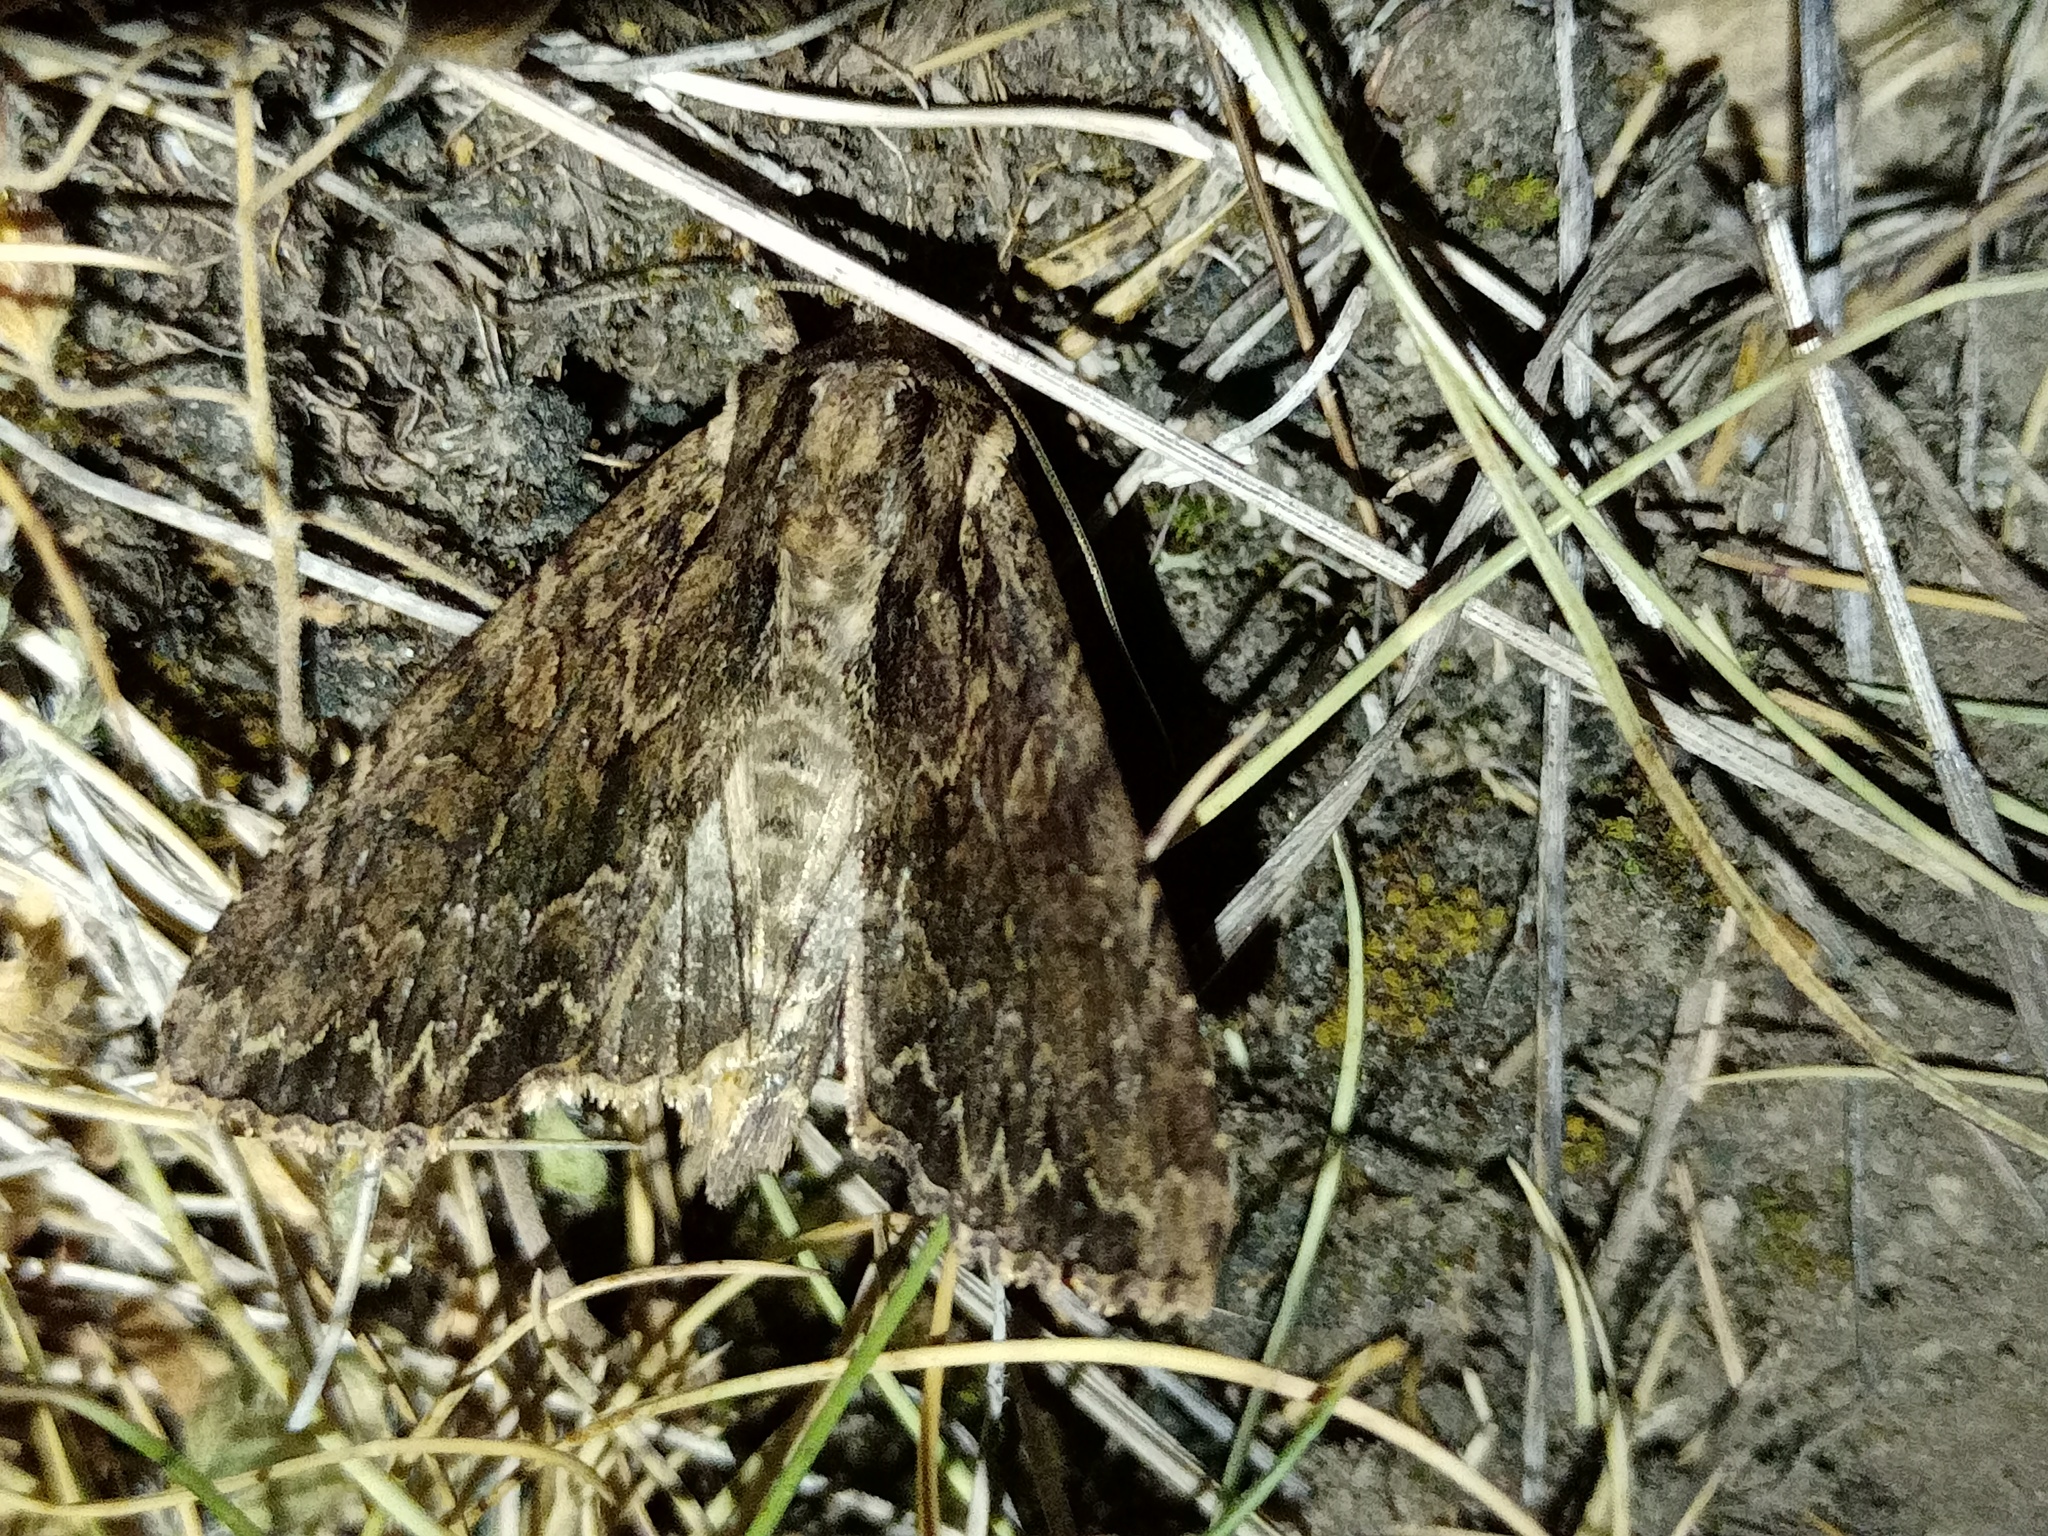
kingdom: Animalia
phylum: Arthropoda
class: Insecta
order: Lepidoptera
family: Noctuidae
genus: Apamea
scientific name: Apamea monoglypha
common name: Dark arches
